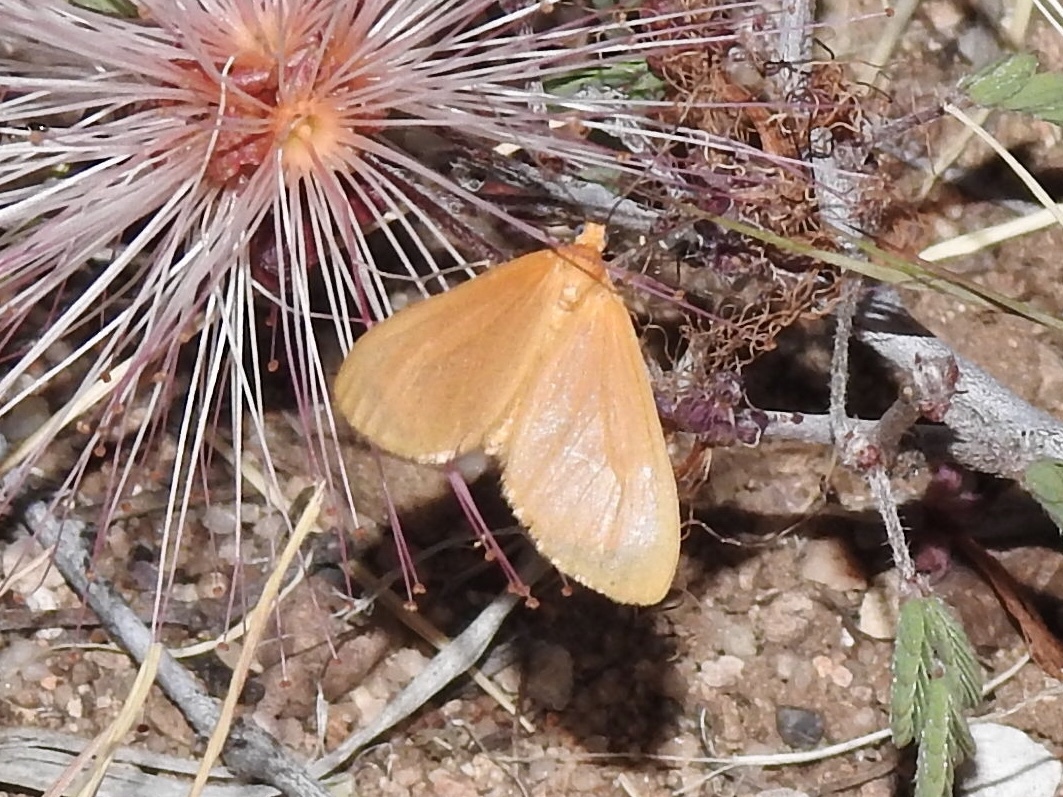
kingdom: Animalia
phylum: Arthropoda
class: Insecta
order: Lepidoptera
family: Geometridae
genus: Eubaphe
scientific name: Eubaphe unicolor
